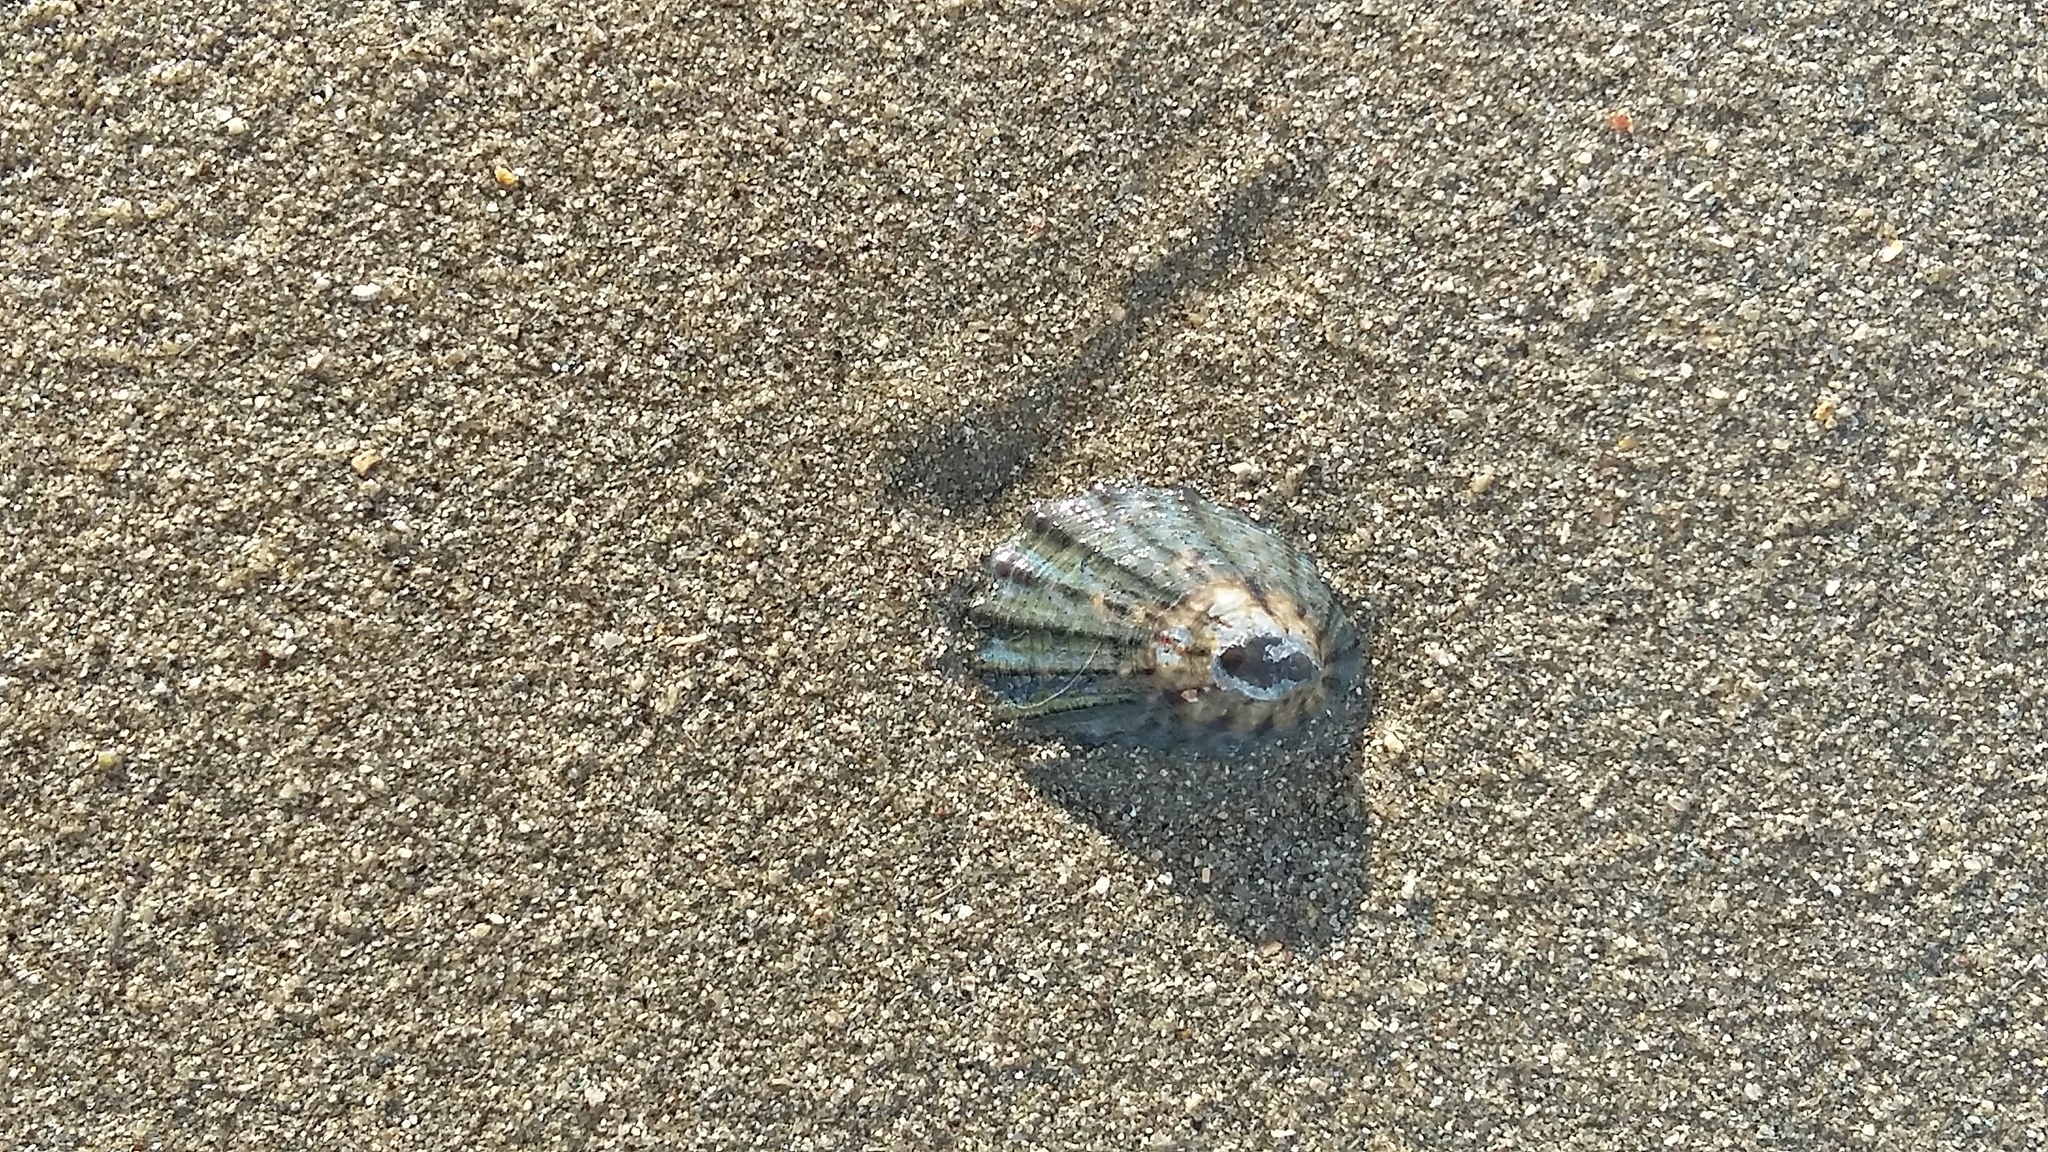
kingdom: Animalia
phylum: Mollusca
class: Gastropoda
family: Nacellidae
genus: Cellana
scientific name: Cellana radians
